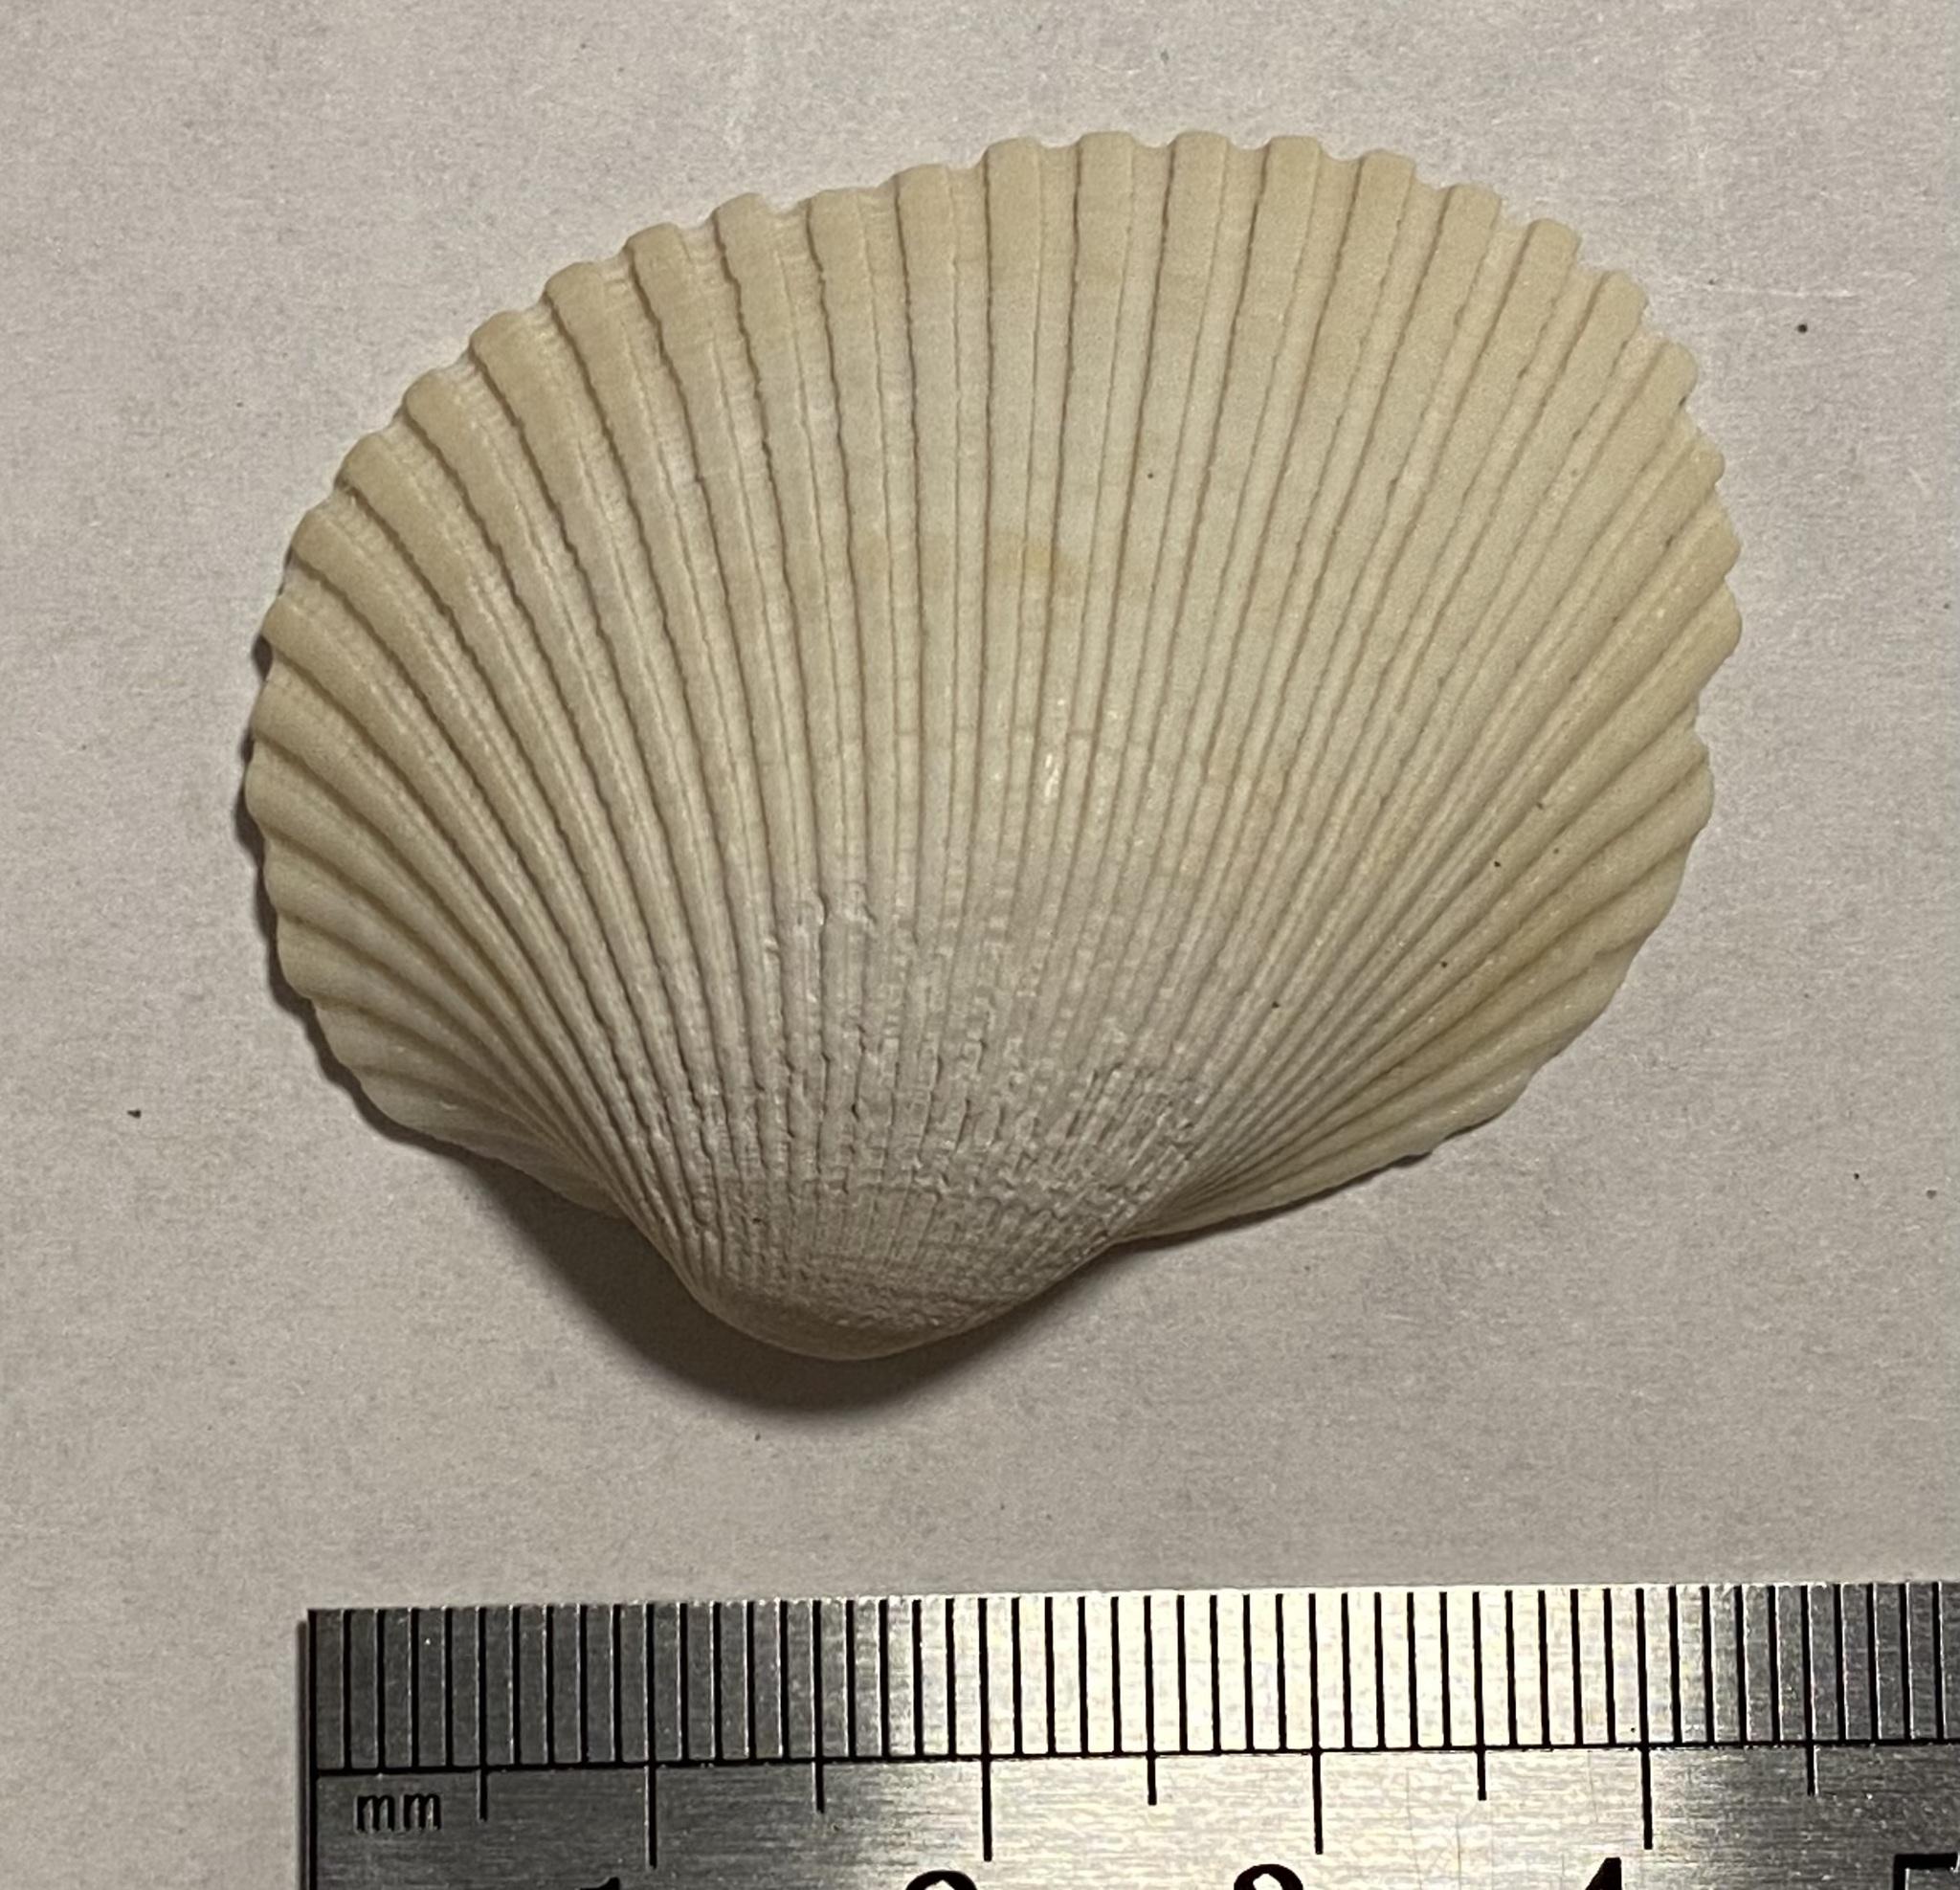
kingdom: Animalia
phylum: Mollusca
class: Bivalvia
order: Arcida
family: Arcidae
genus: Lunarca
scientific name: Lunarca ovalis
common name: Blood ark
